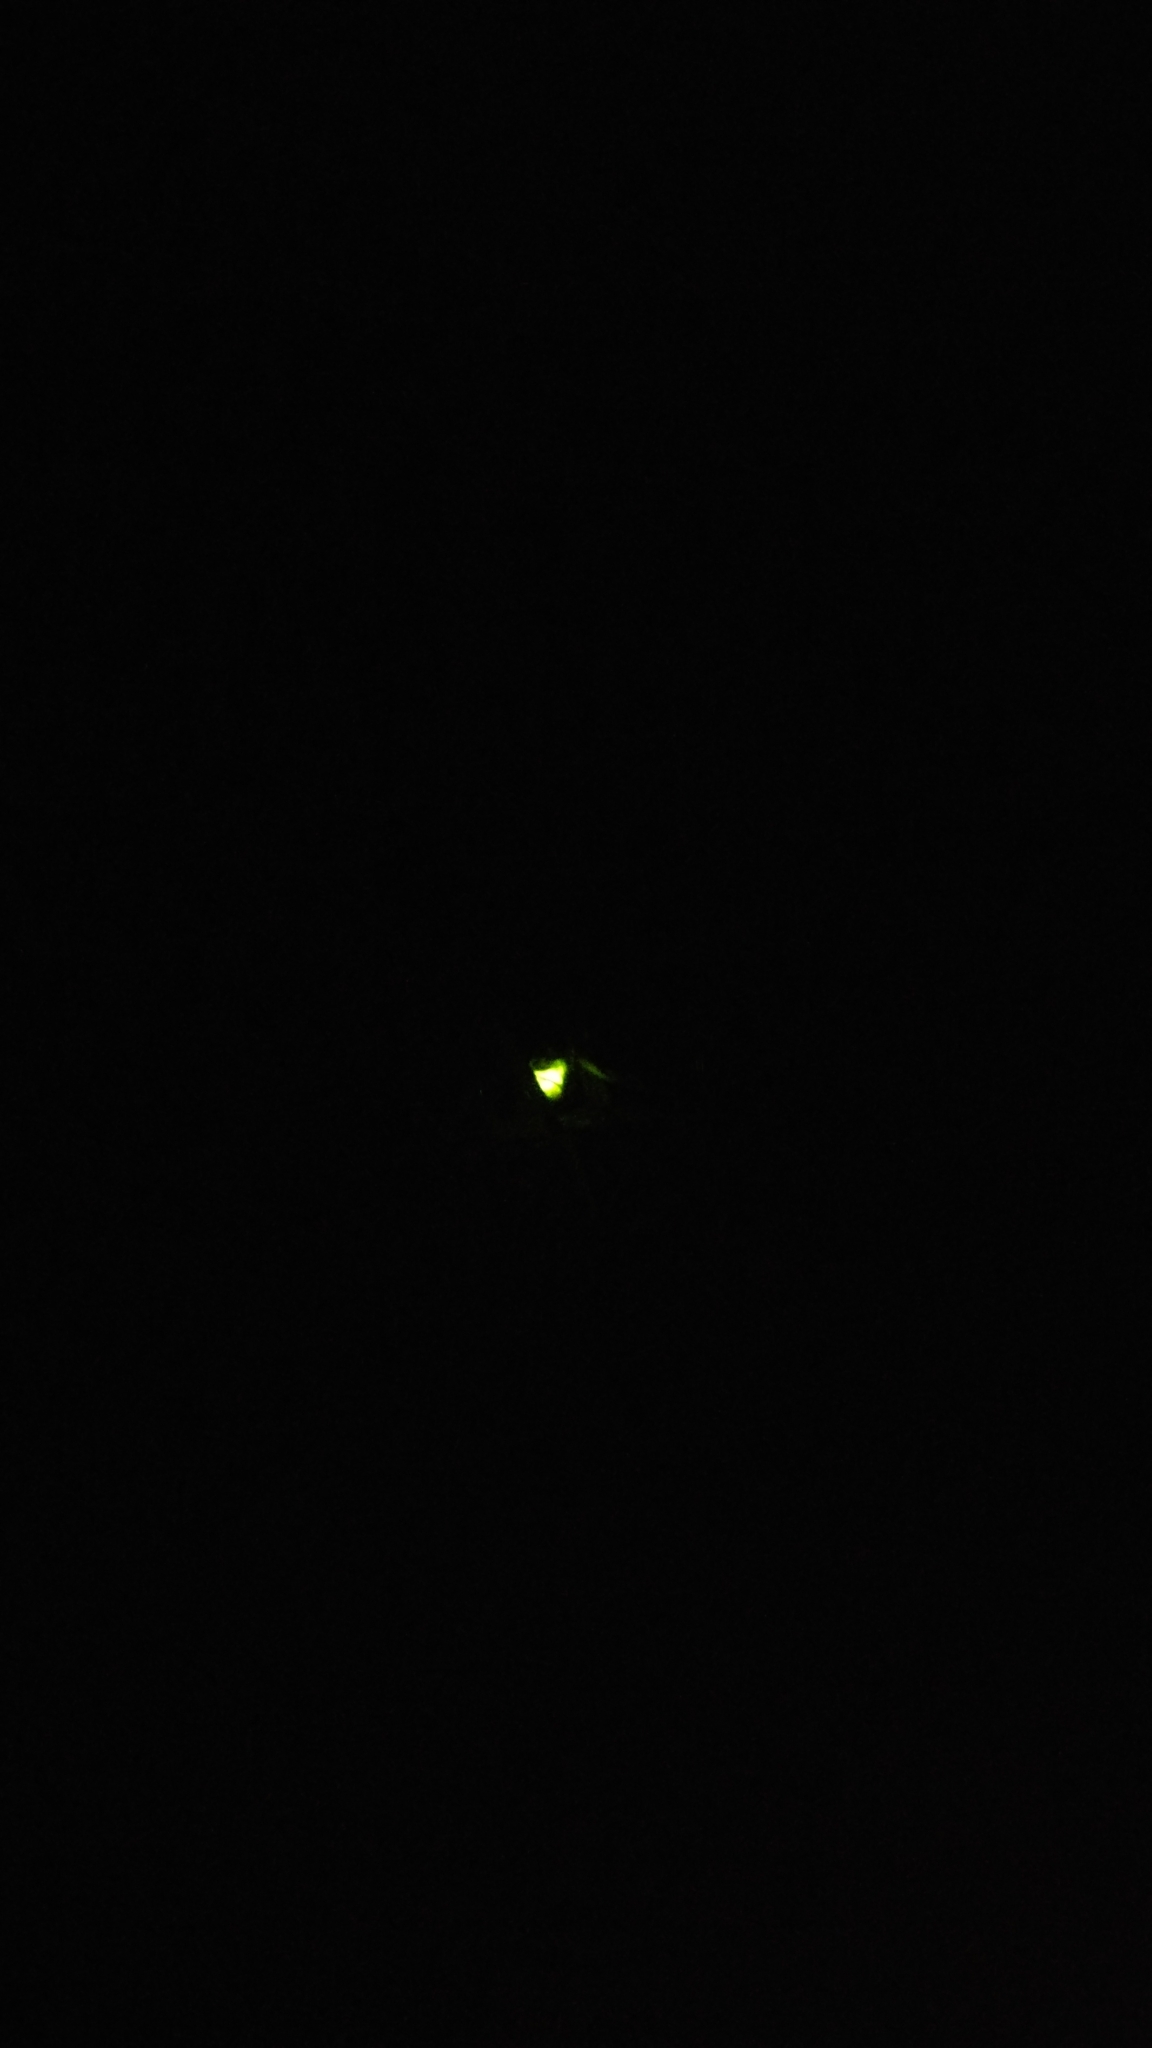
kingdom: Animalia
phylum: Arthropoda
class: Insecta
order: Coleoptera
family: Lampyridae
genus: Lampyris
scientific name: Lampyris noctiluca
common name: Glow-worm
